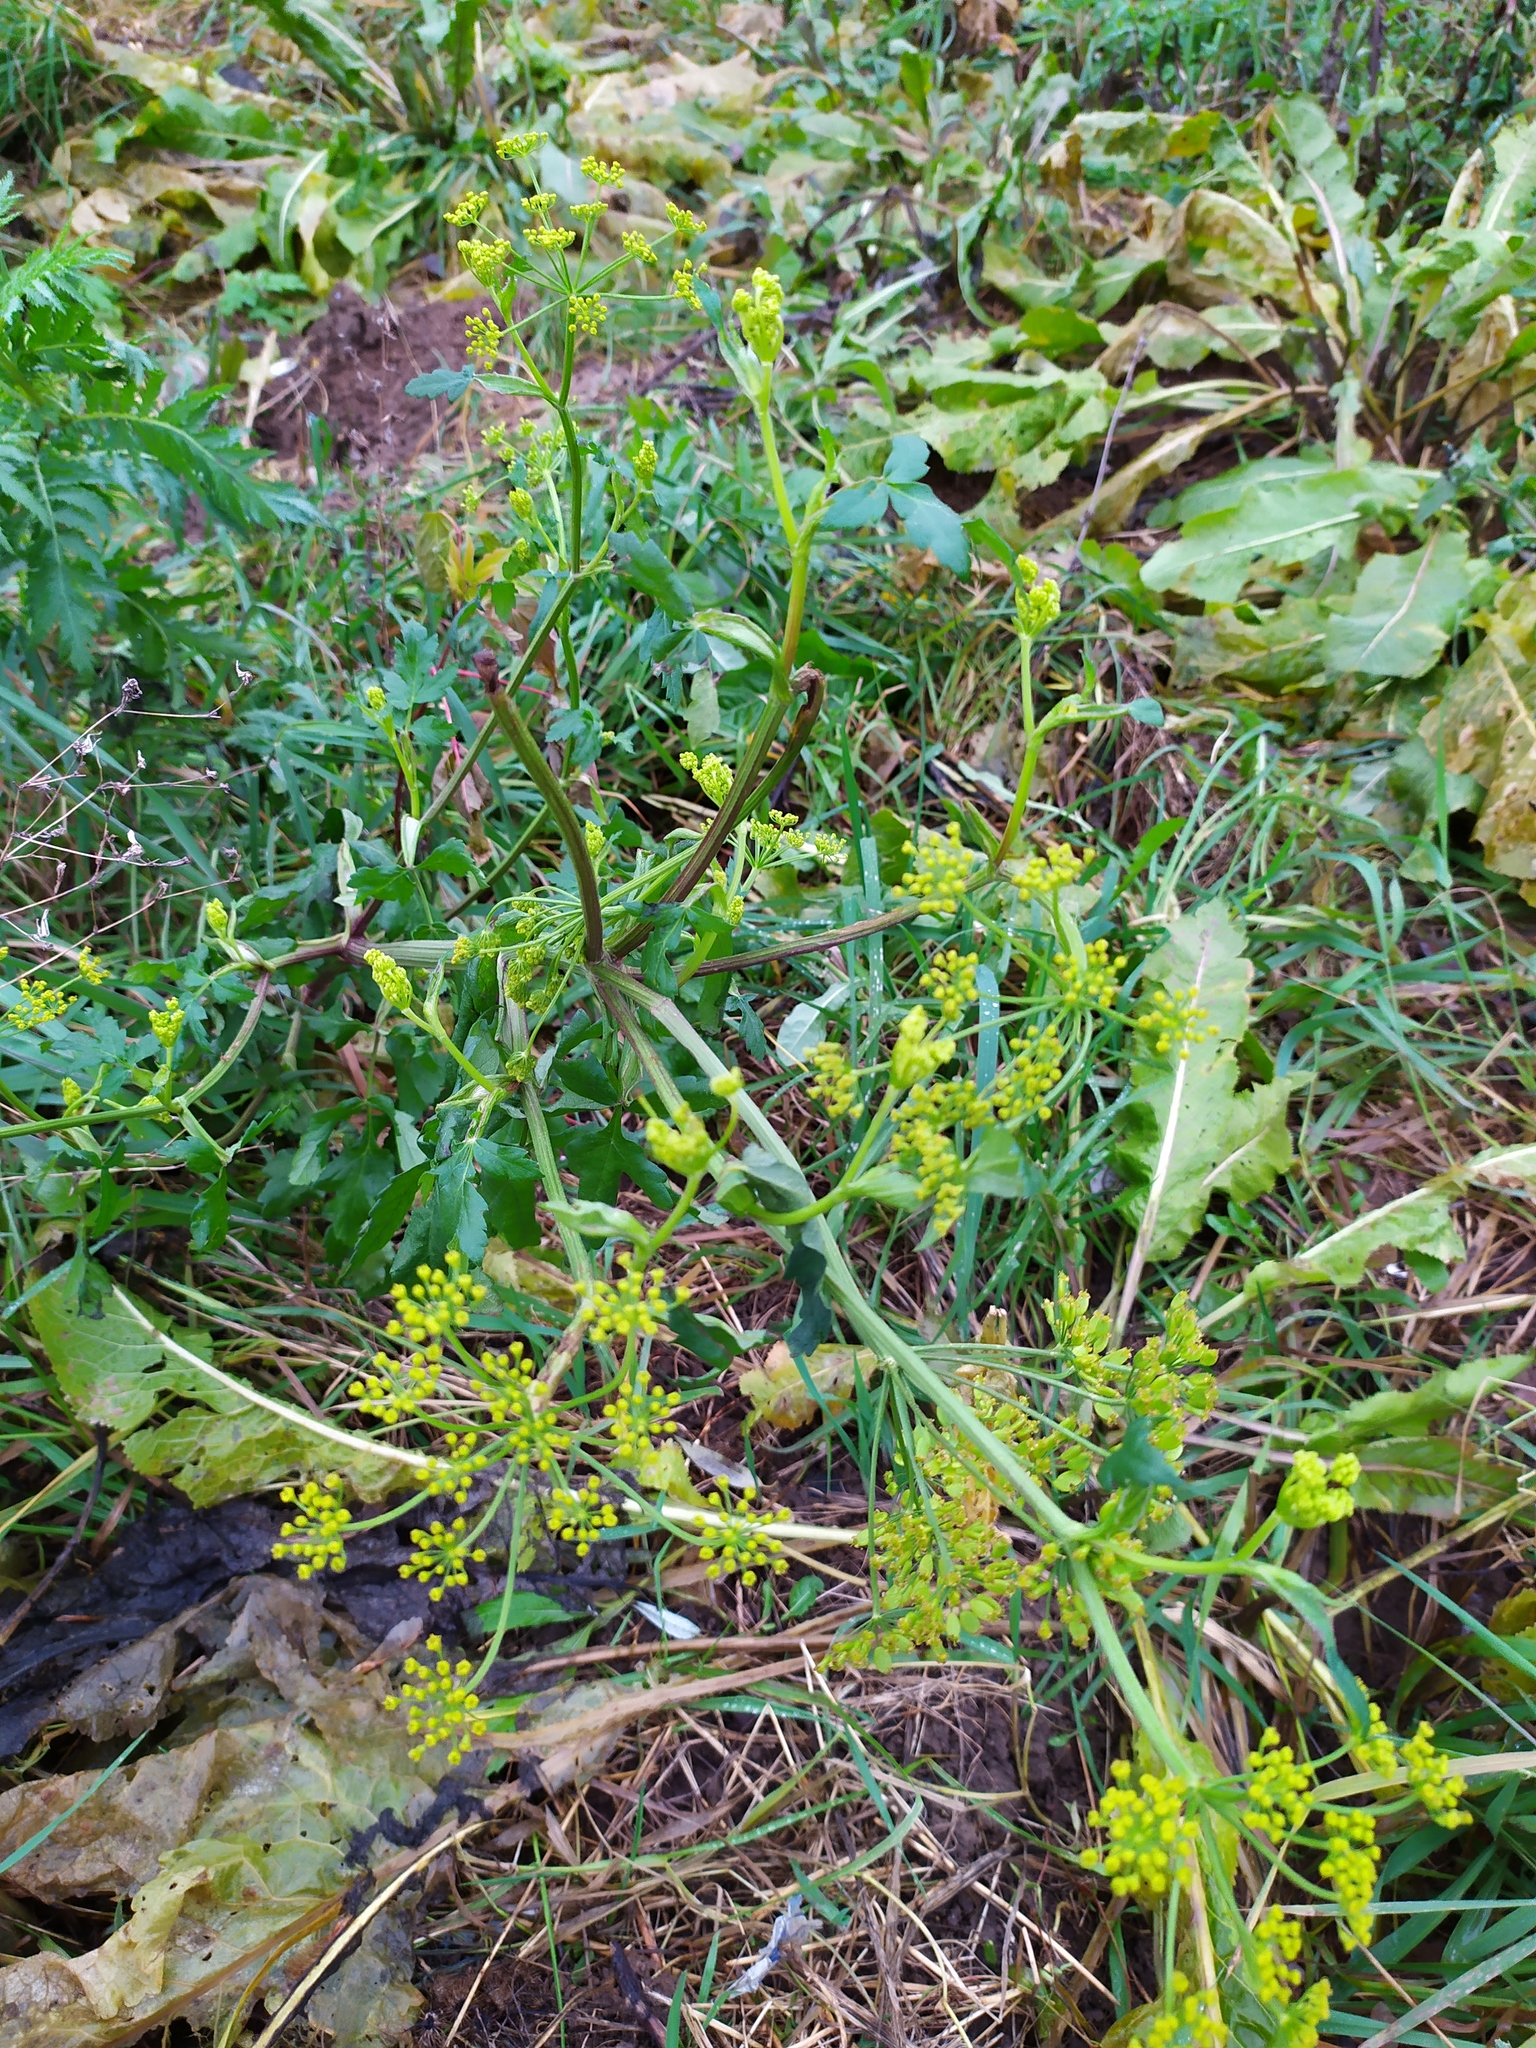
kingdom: Plantae
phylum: Tracheophyta
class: Magnoliopsida
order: Apiales
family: Apiaceae
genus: Pastinaca
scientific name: Pastinaca sativa
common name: Wild parsnip
